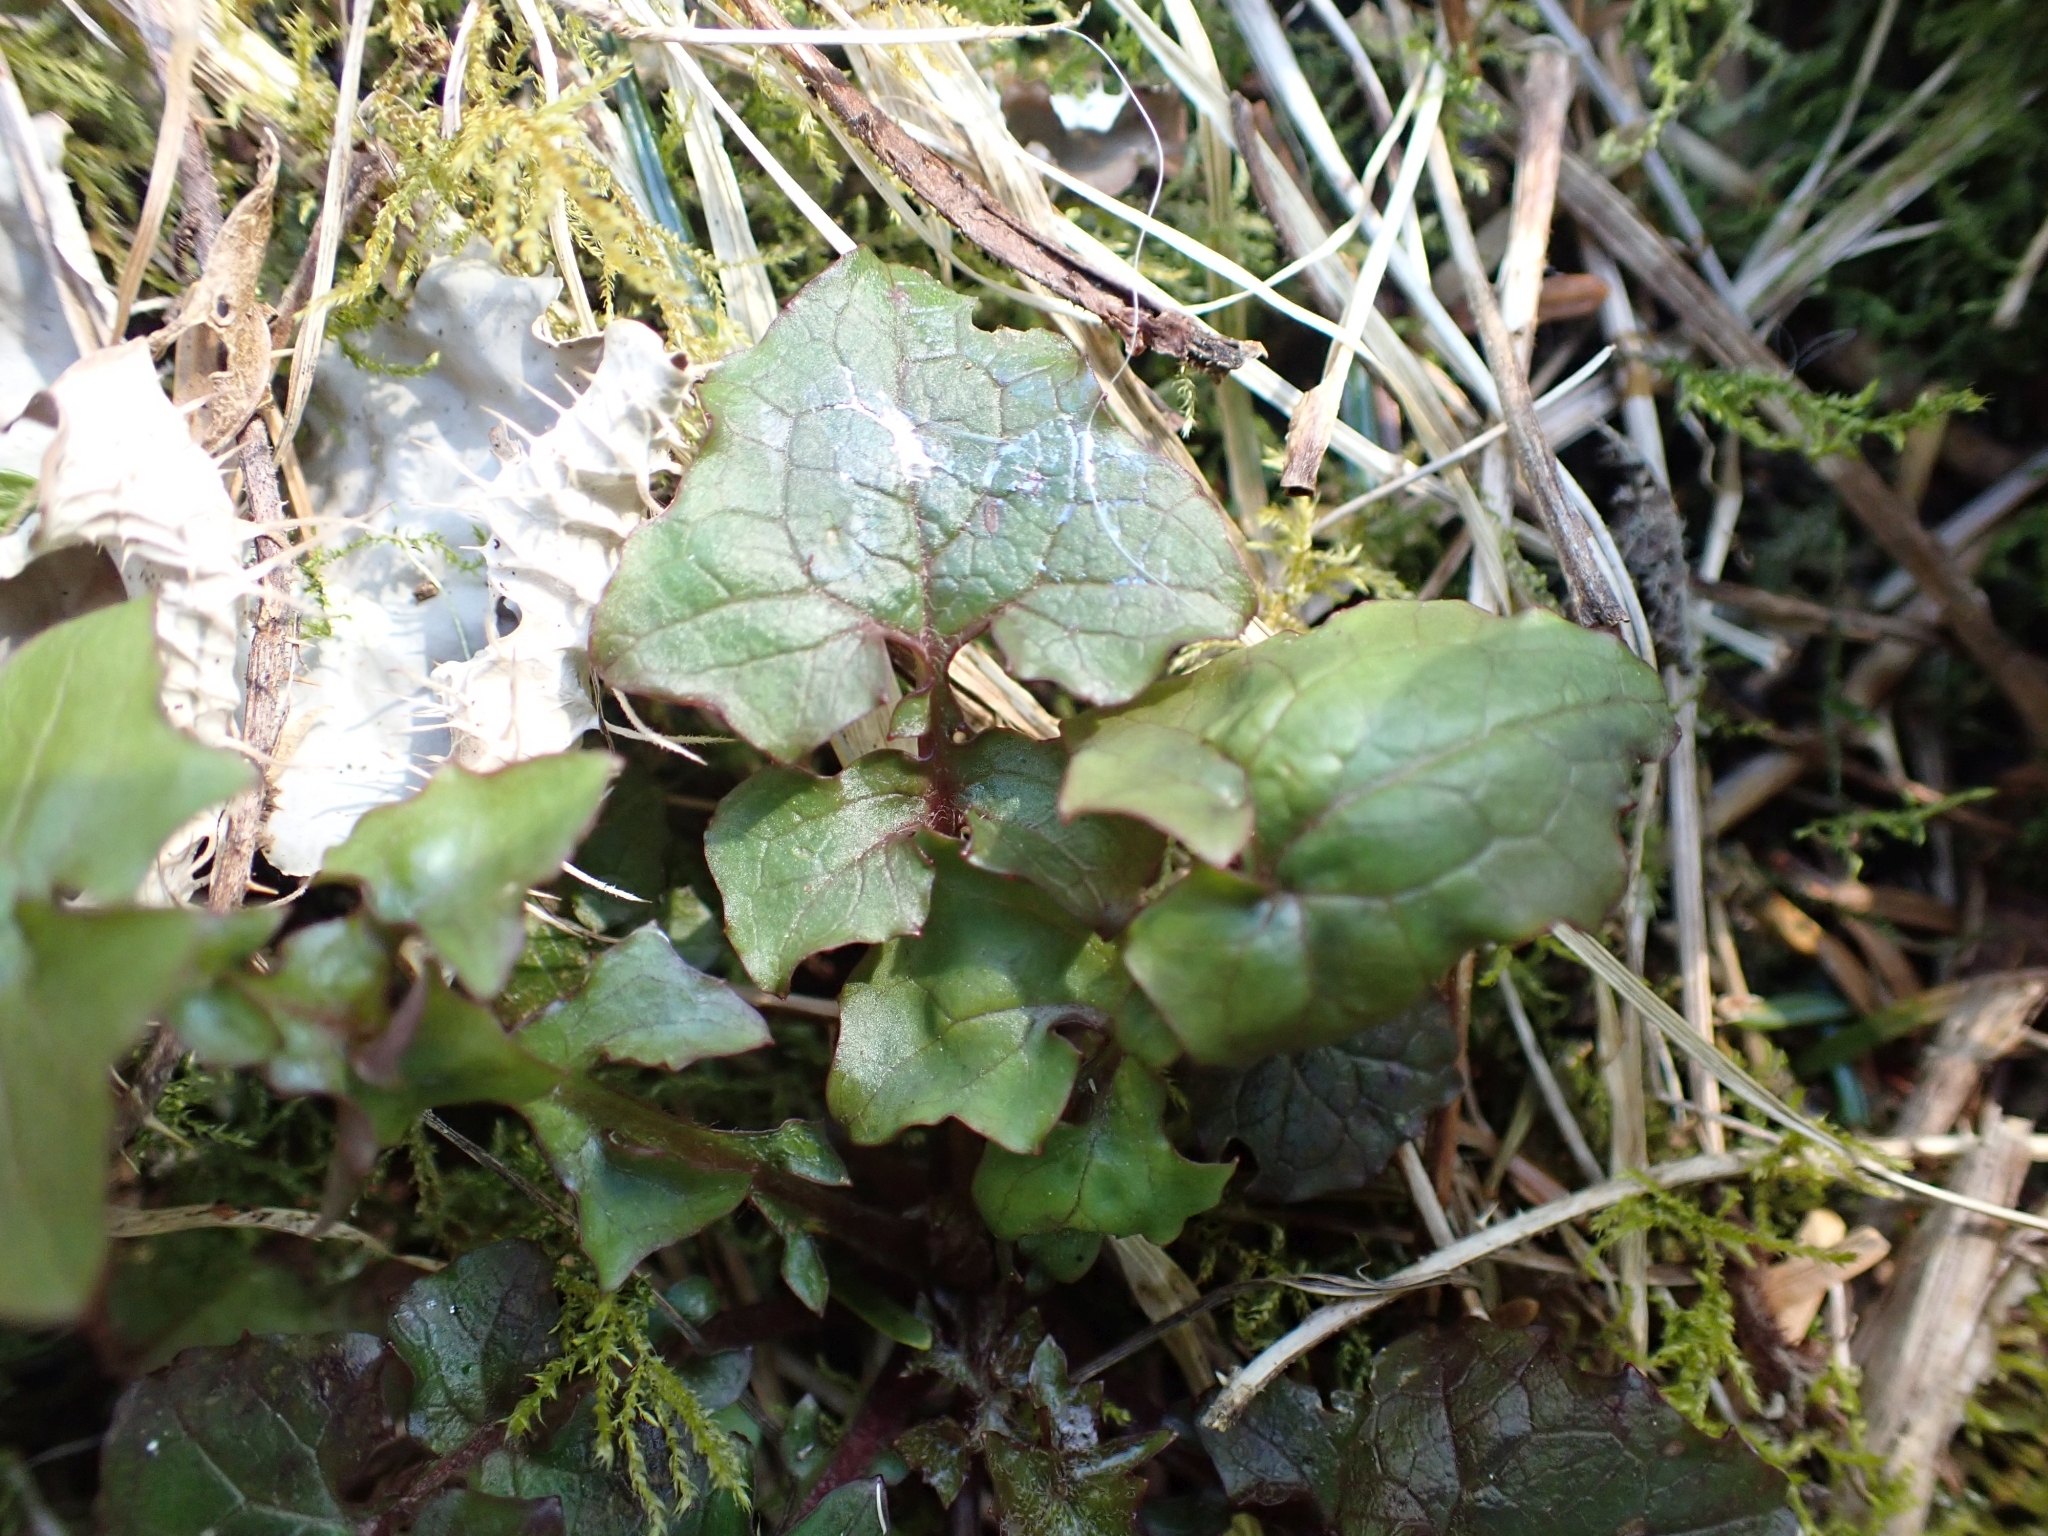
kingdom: Plantae
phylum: Tracheophyta
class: Magnoliopsida
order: Asterales
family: Asteraceae
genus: Mycelis
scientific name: Mycelis muralis
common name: Wall lettuce
